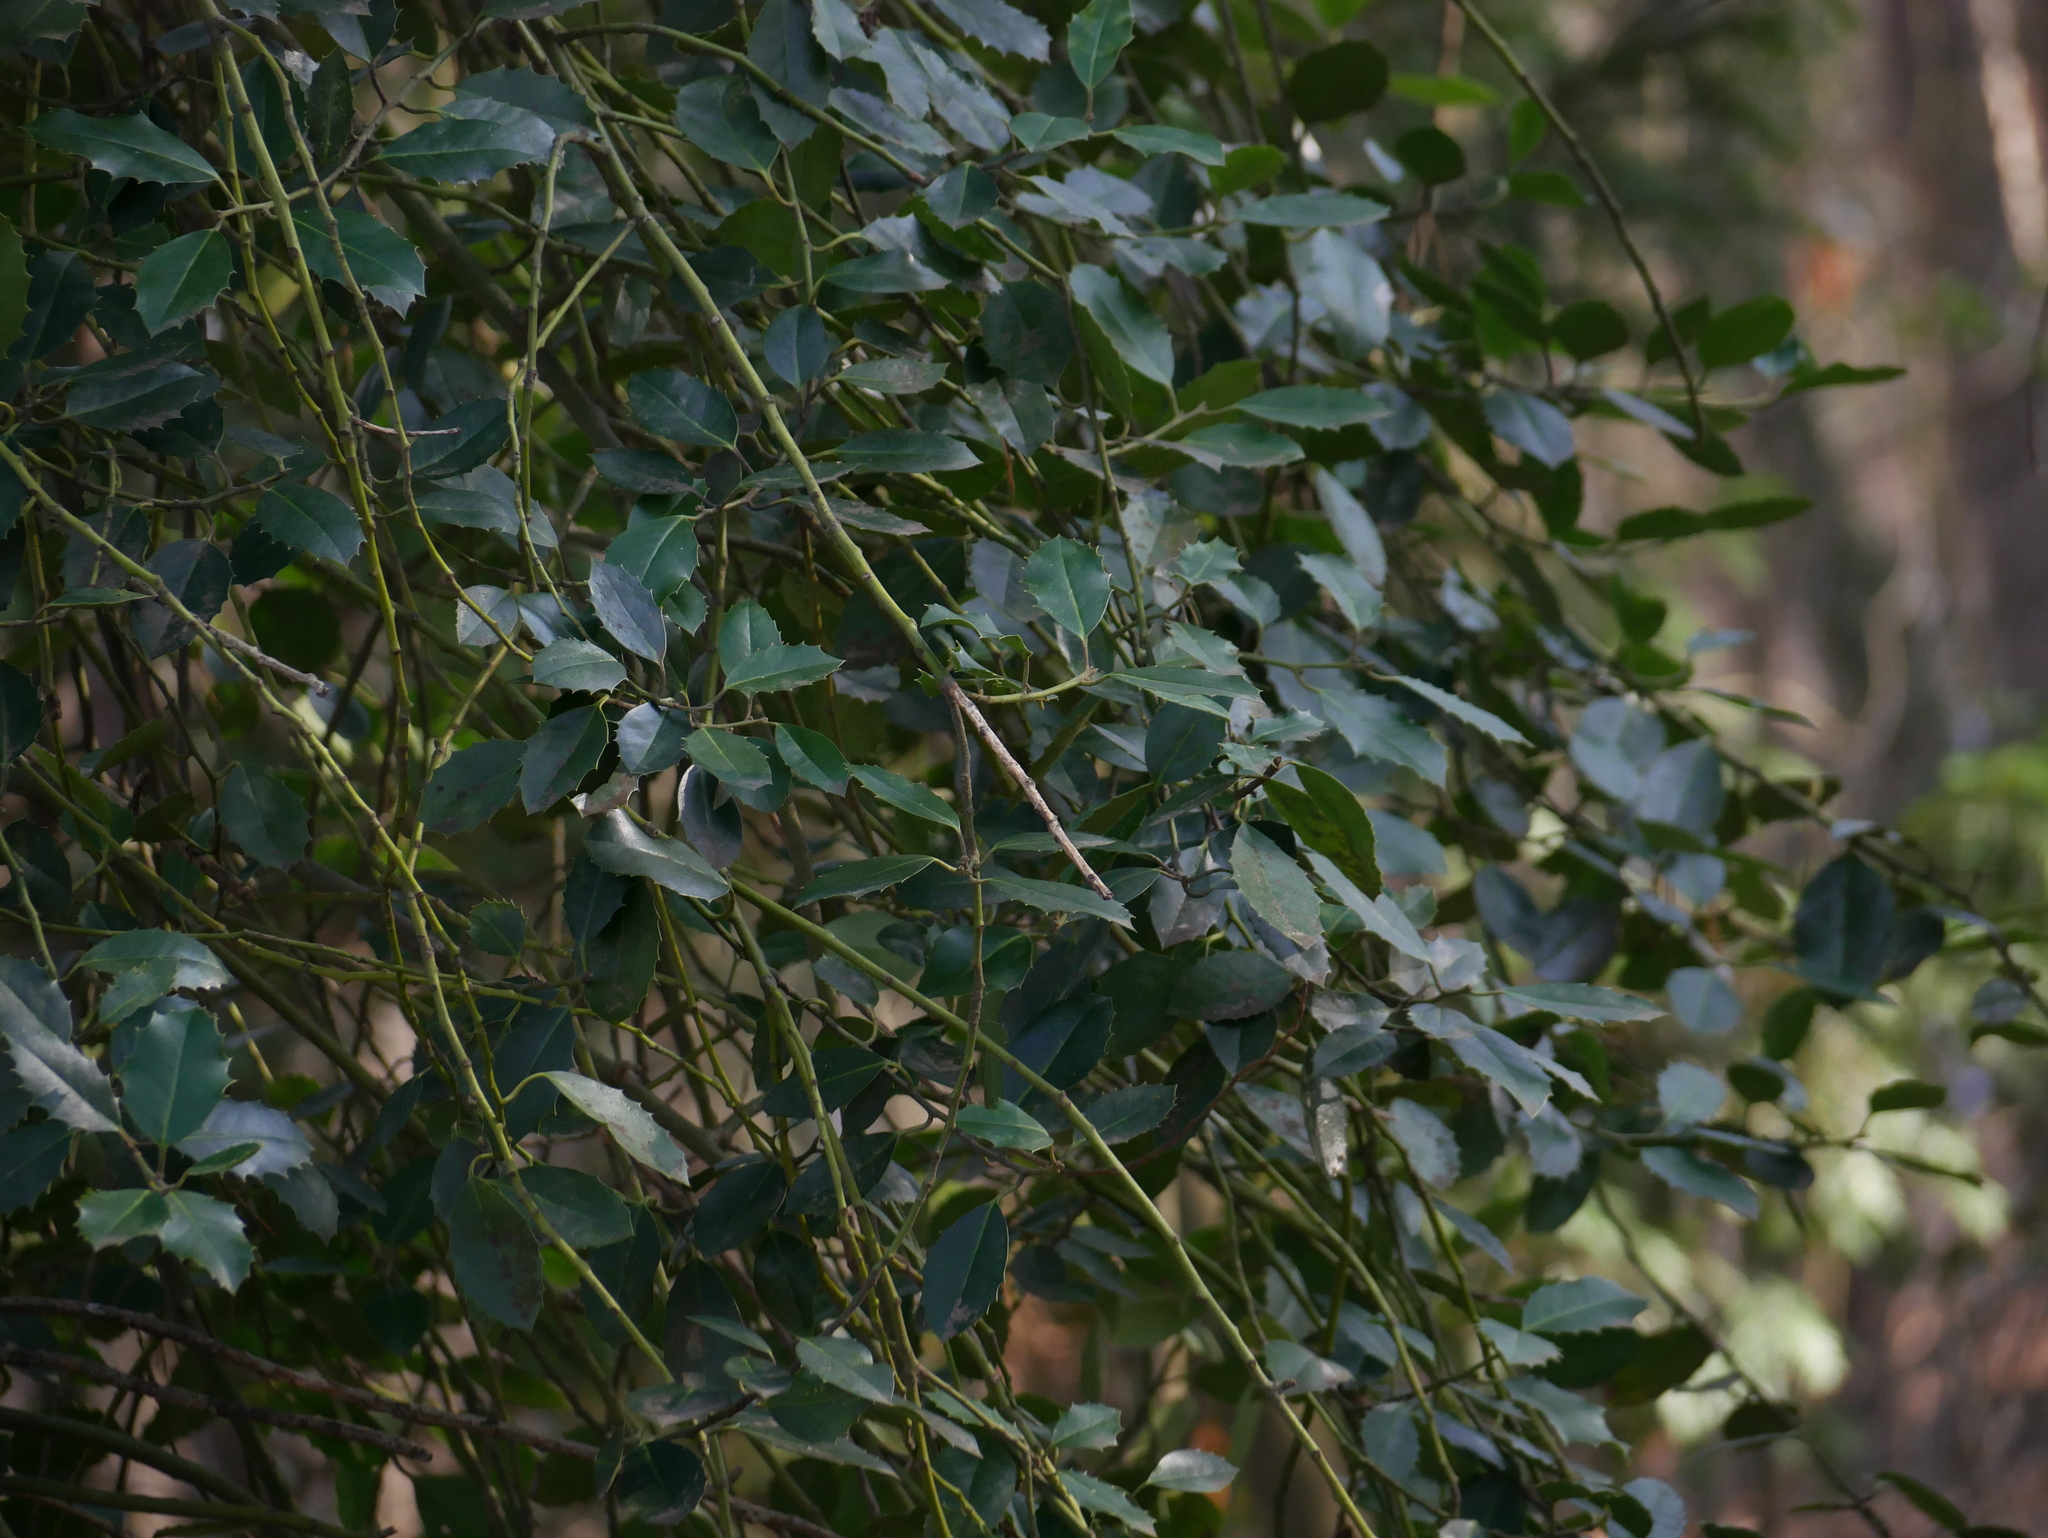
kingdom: Plantae
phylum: Tracheophyta
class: Magnoliopsida
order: Aquifoliales
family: Aquifoliaceae
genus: Ilex
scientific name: Ilex aquifolium
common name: English holly
